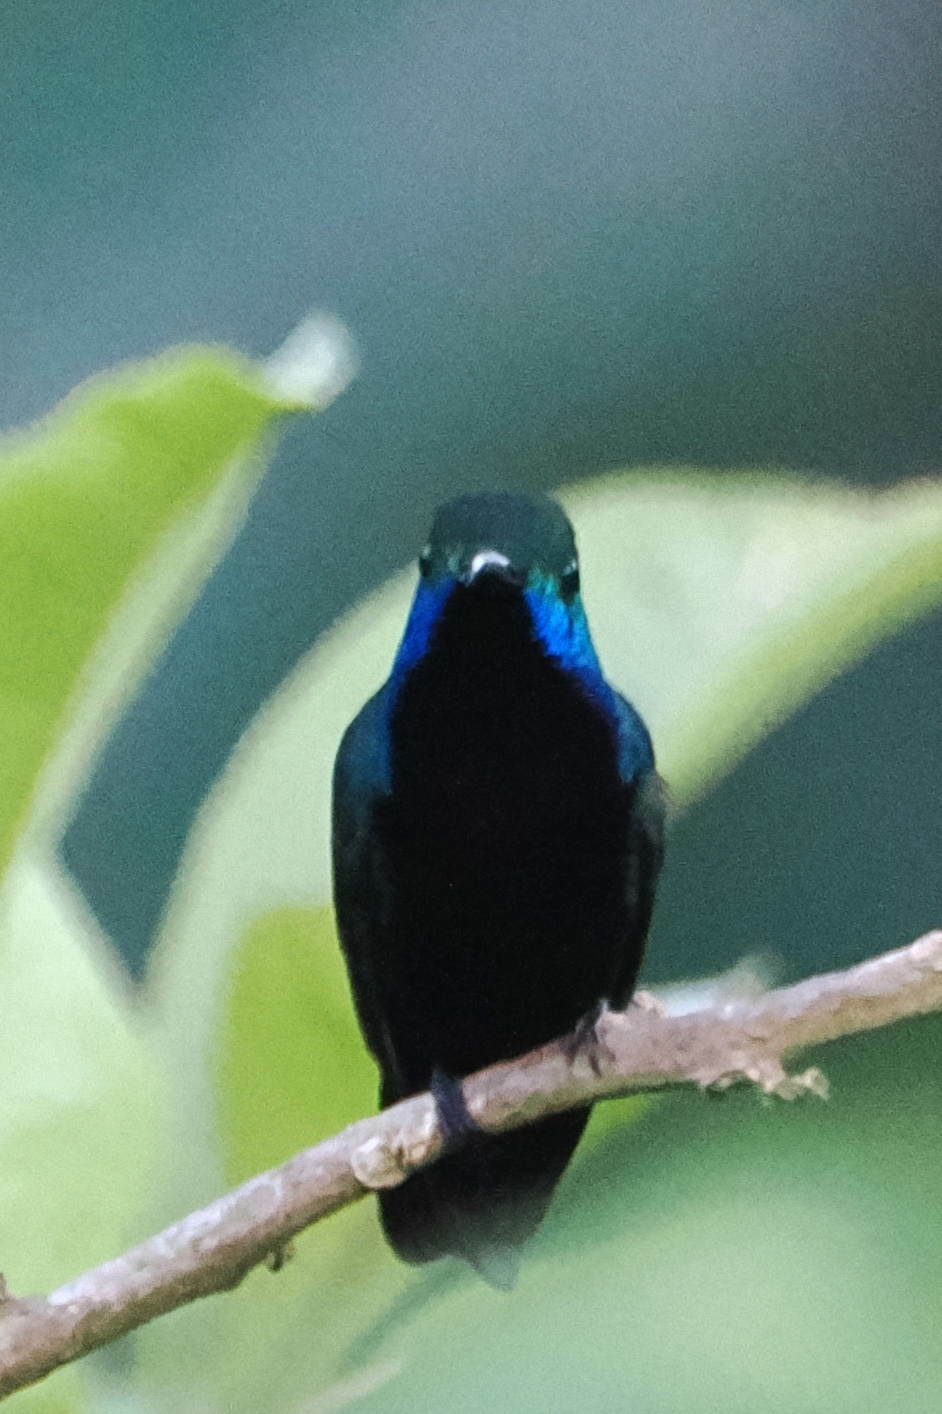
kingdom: Animalia
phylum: Chordata
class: Aves
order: Apodiformes
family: Trochilidae
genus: Anthracothorax
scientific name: Anthracothorax nigricollis
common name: Black-throated mango
